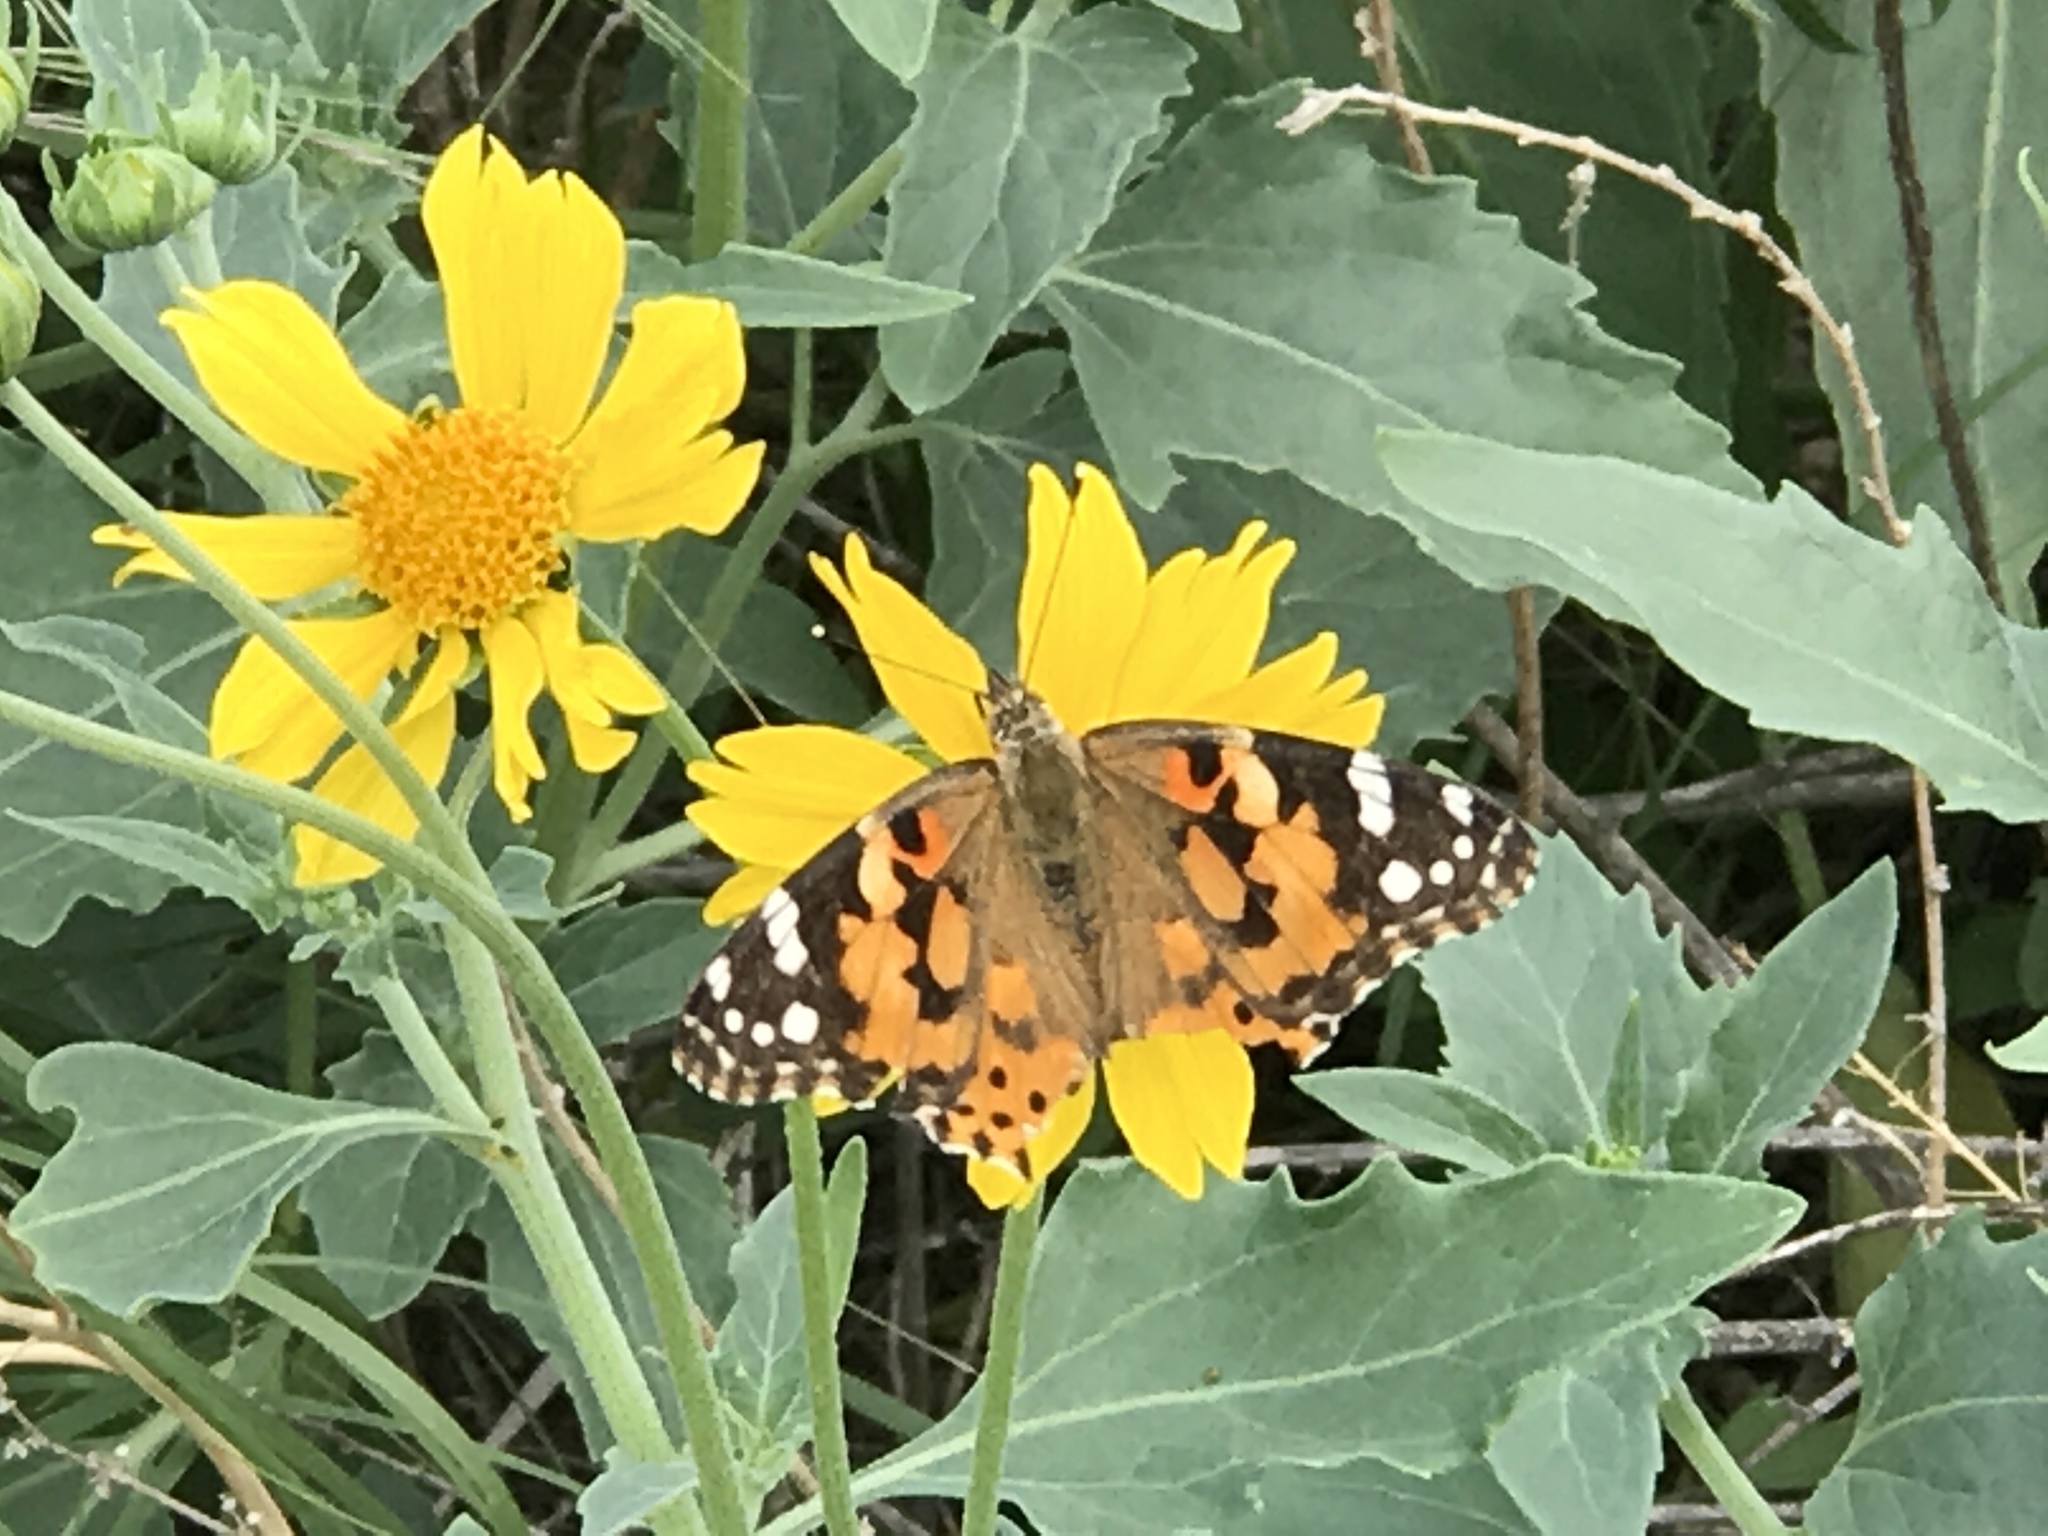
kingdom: Animalia
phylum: Arthropoda
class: Insecta
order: Lepidoptera
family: Nymphalidae
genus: Vanessa
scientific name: Vanessa cardui
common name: Painted lady
